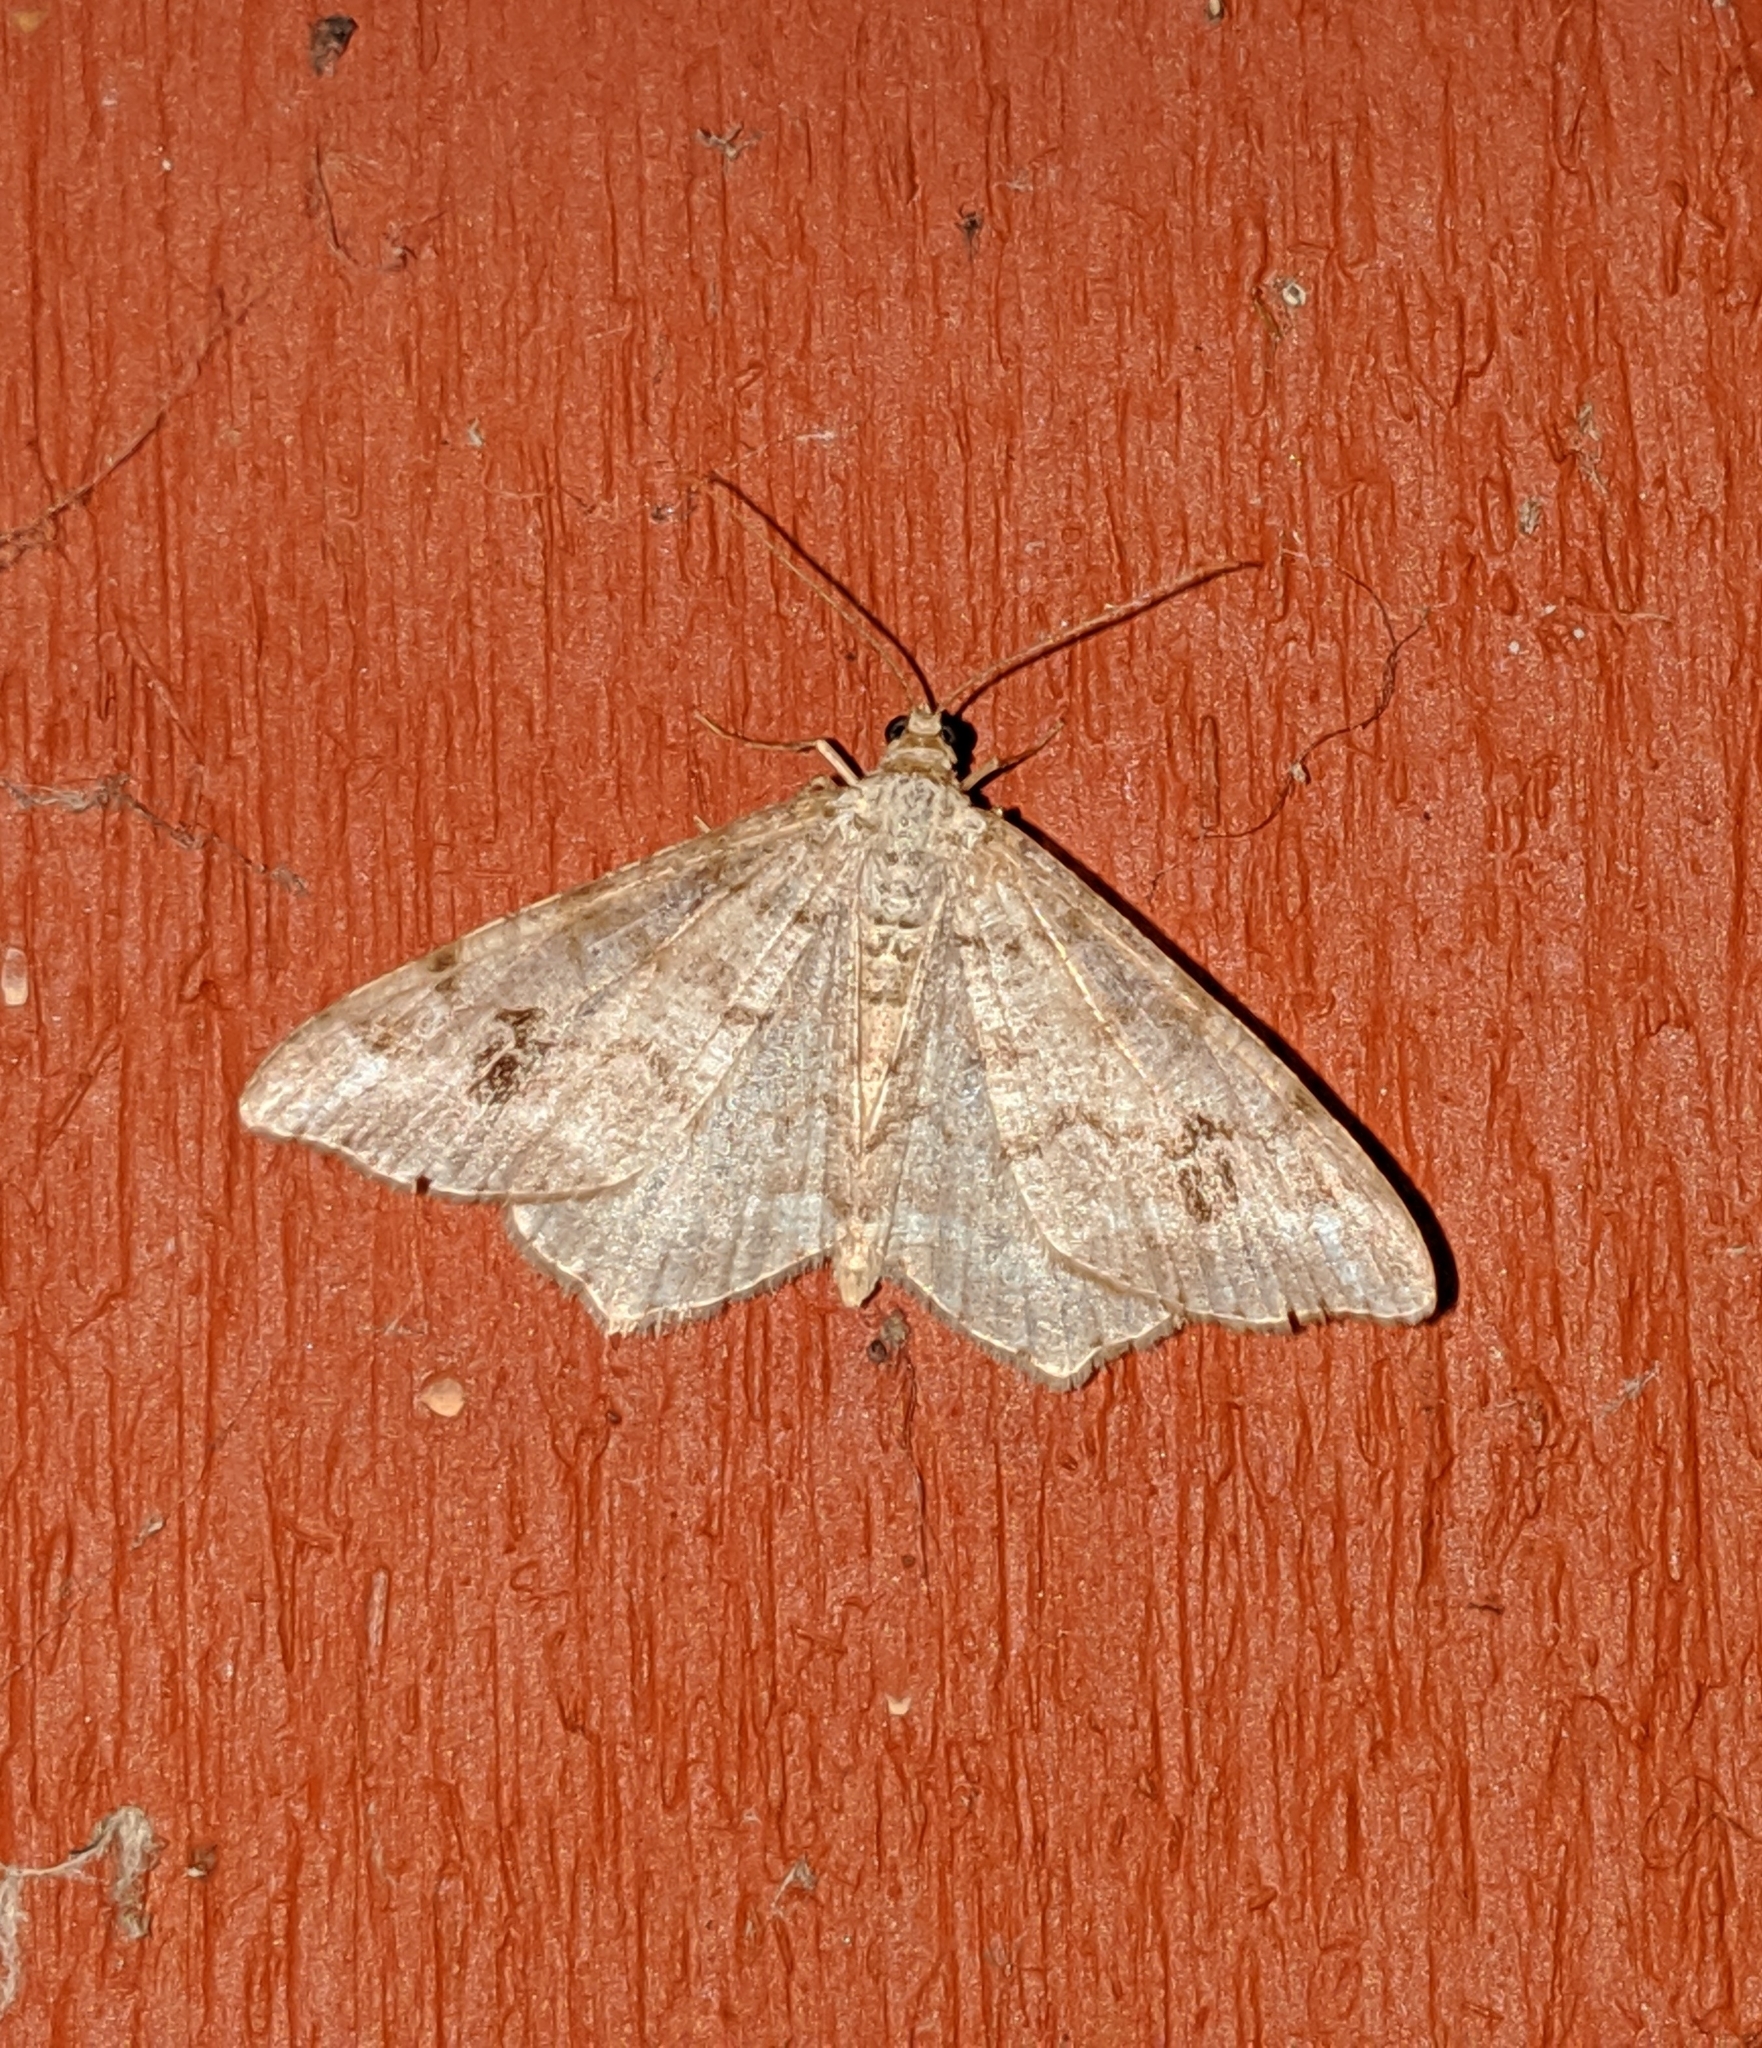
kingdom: Animalia
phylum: Arthropoda
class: Insecta
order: Lepidoptera
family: Geometridae
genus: Macaria
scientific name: Macaria signaria
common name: Dusky peacock
